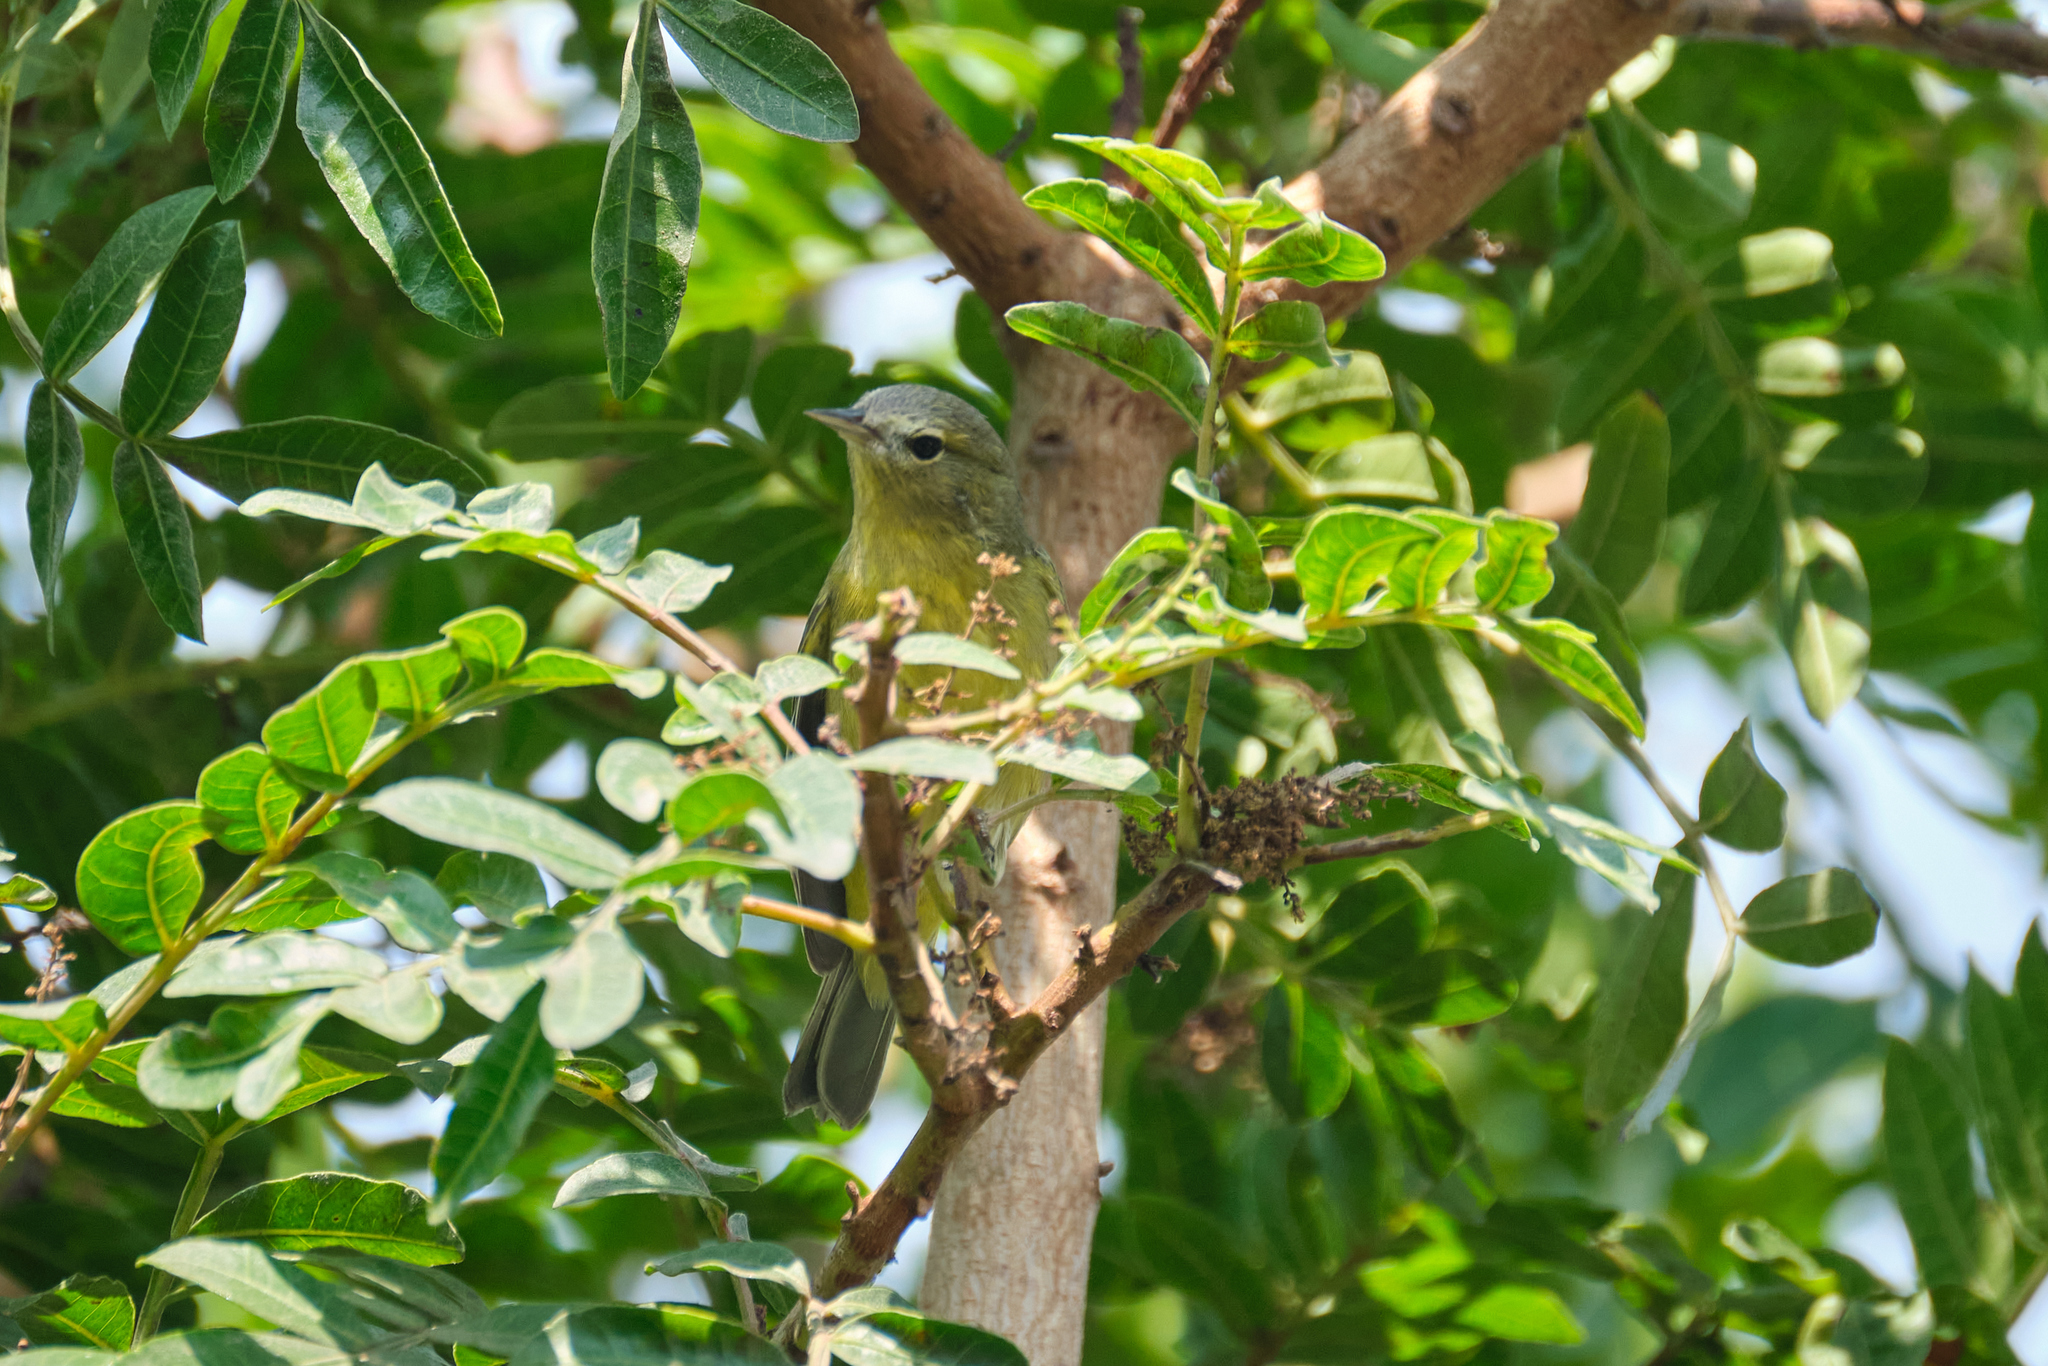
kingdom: Animalia
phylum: Chordata
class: Aves
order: Passeriformes
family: Parulidae
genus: Leiothlypis
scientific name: Leiothlypis celata
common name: Orange-crowned warbler
